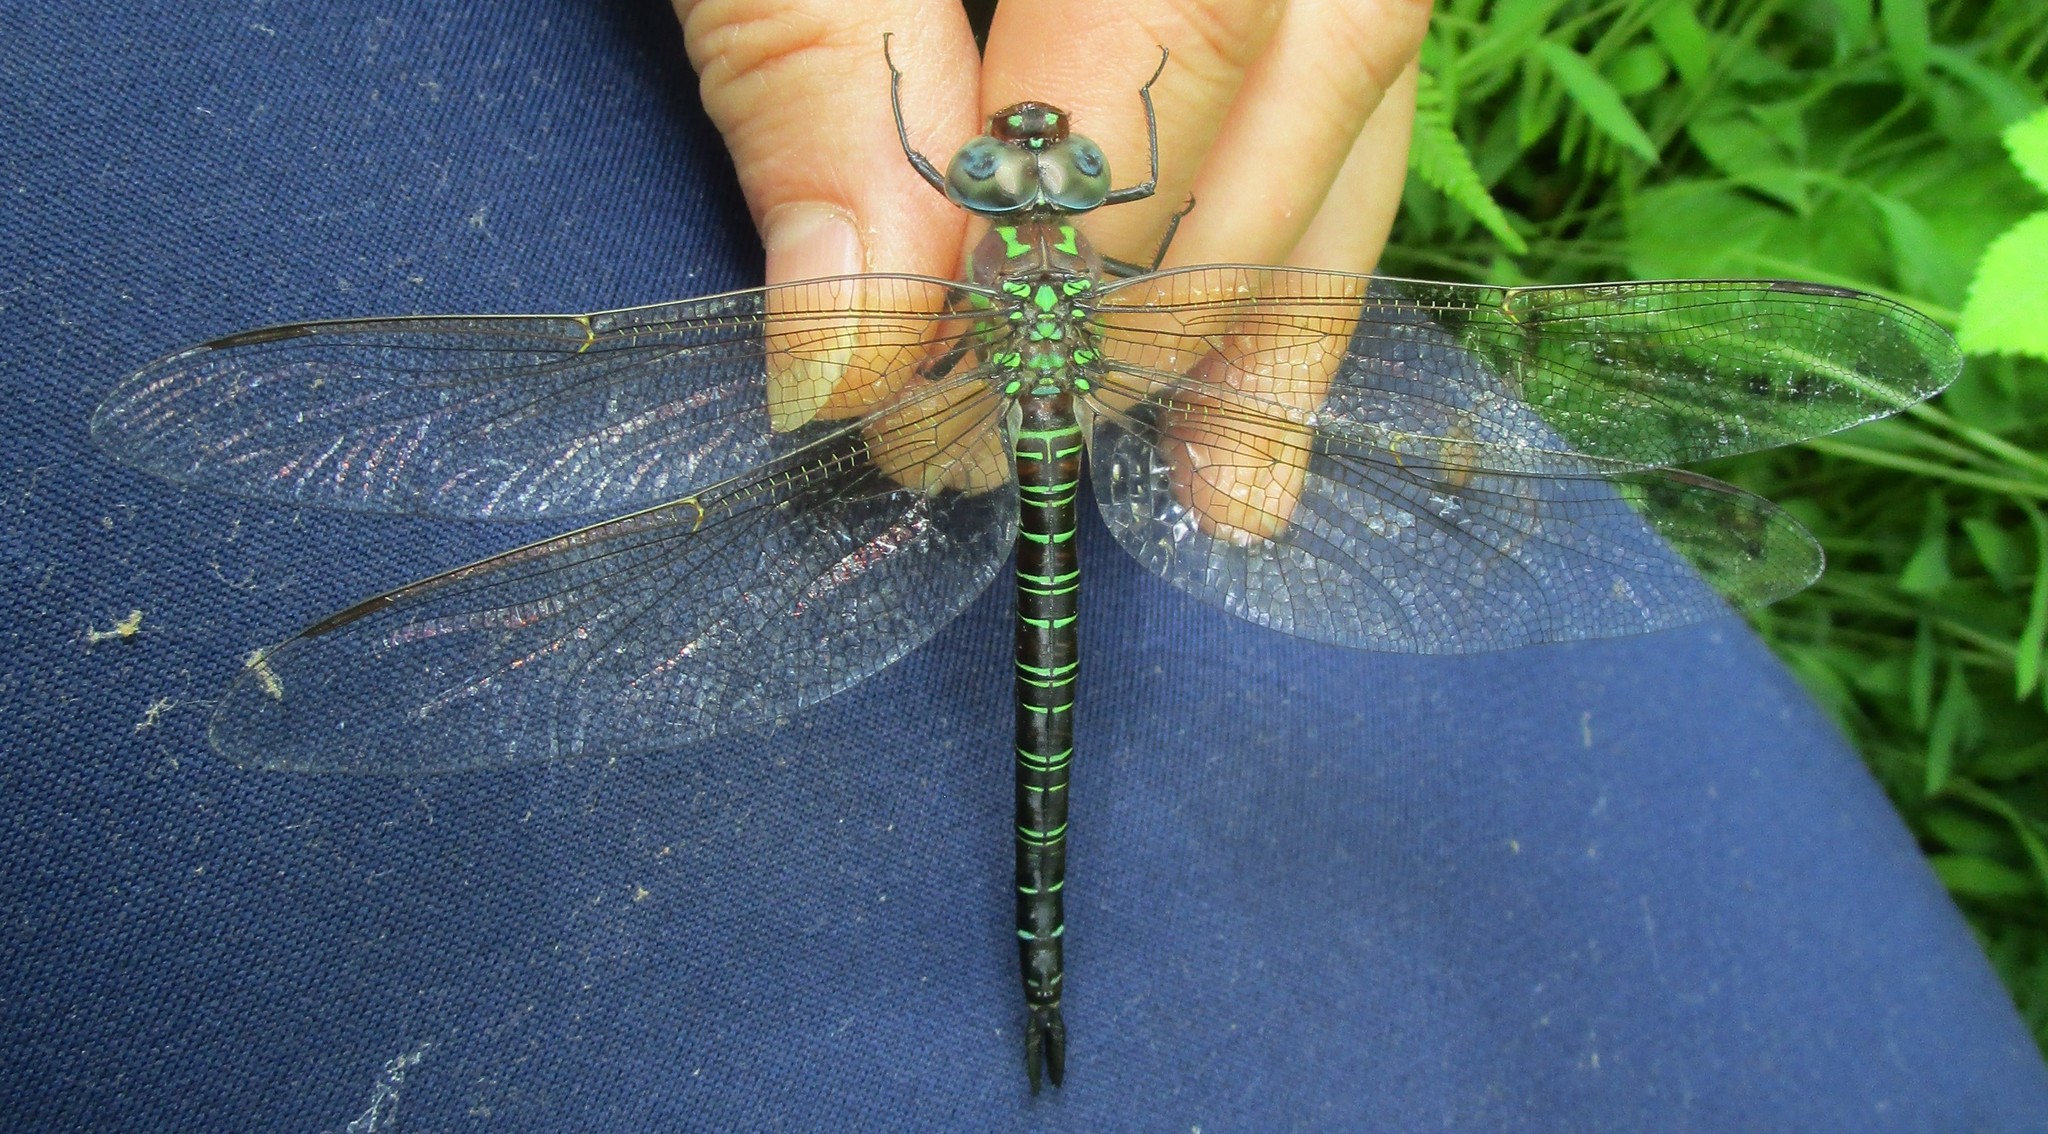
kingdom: Animalia
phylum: Arthropoda
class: Insecta
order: Odonata
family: Aeshnidae
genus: Epiaeschna
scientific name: Epiaeschna heros
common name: Swamp darner
